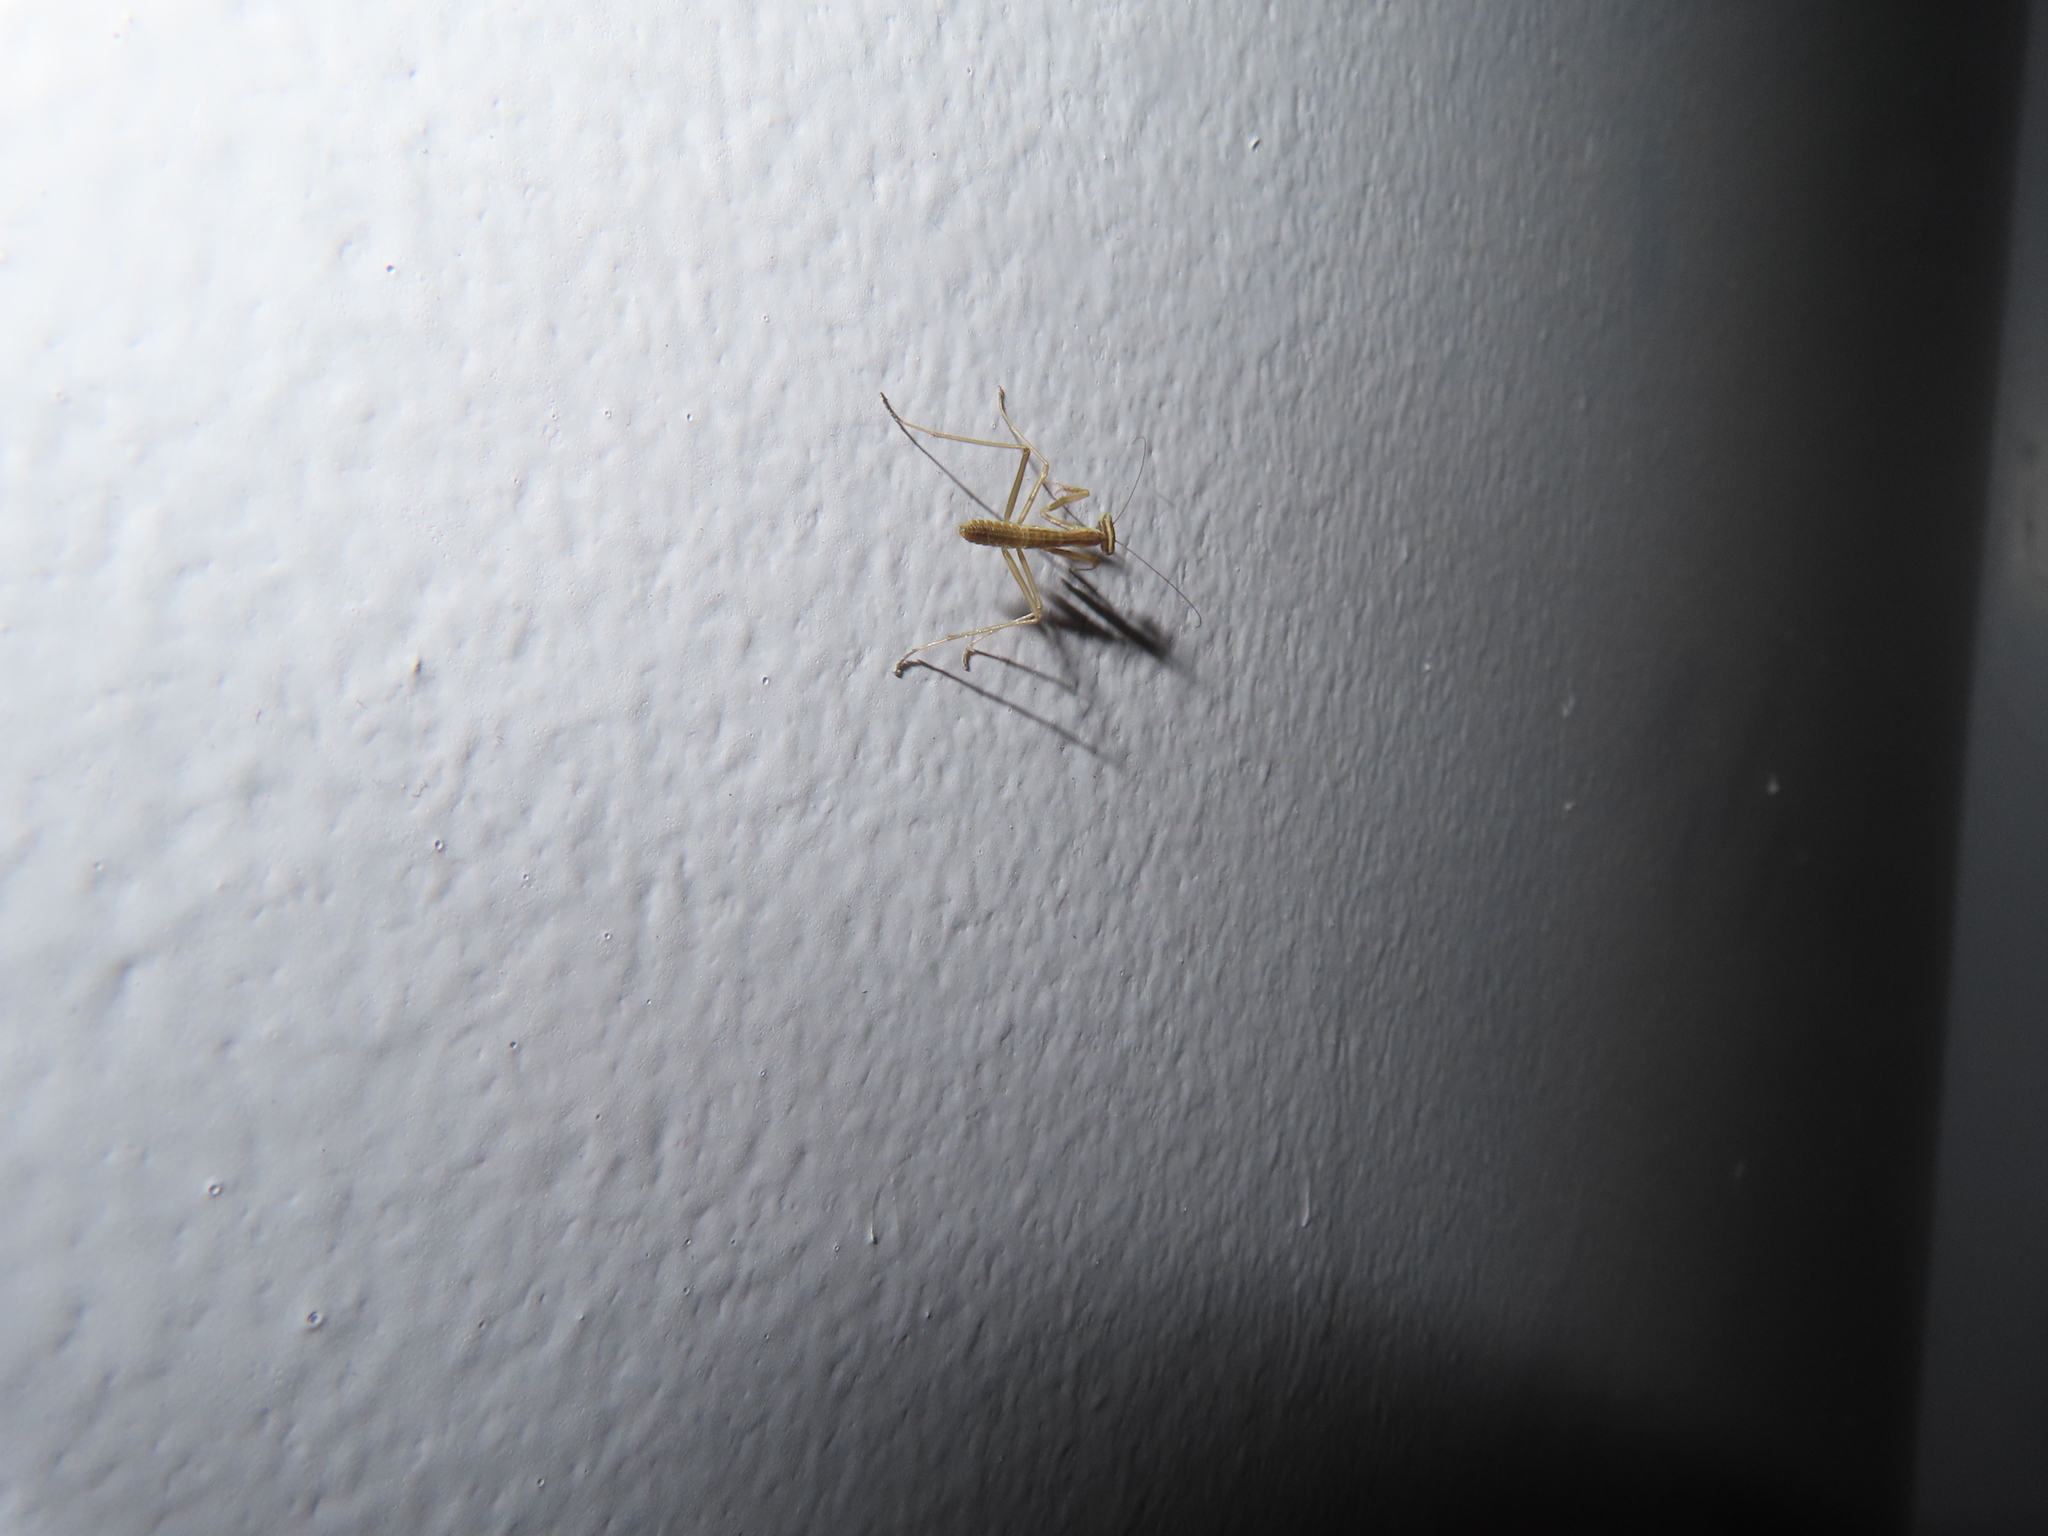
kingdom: Animalia
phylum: Arthropoda
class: Insecta
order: Mantodea
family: Mantidae
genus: Tenodera
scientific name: Tenodera sinensis
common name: Chinese mantis
